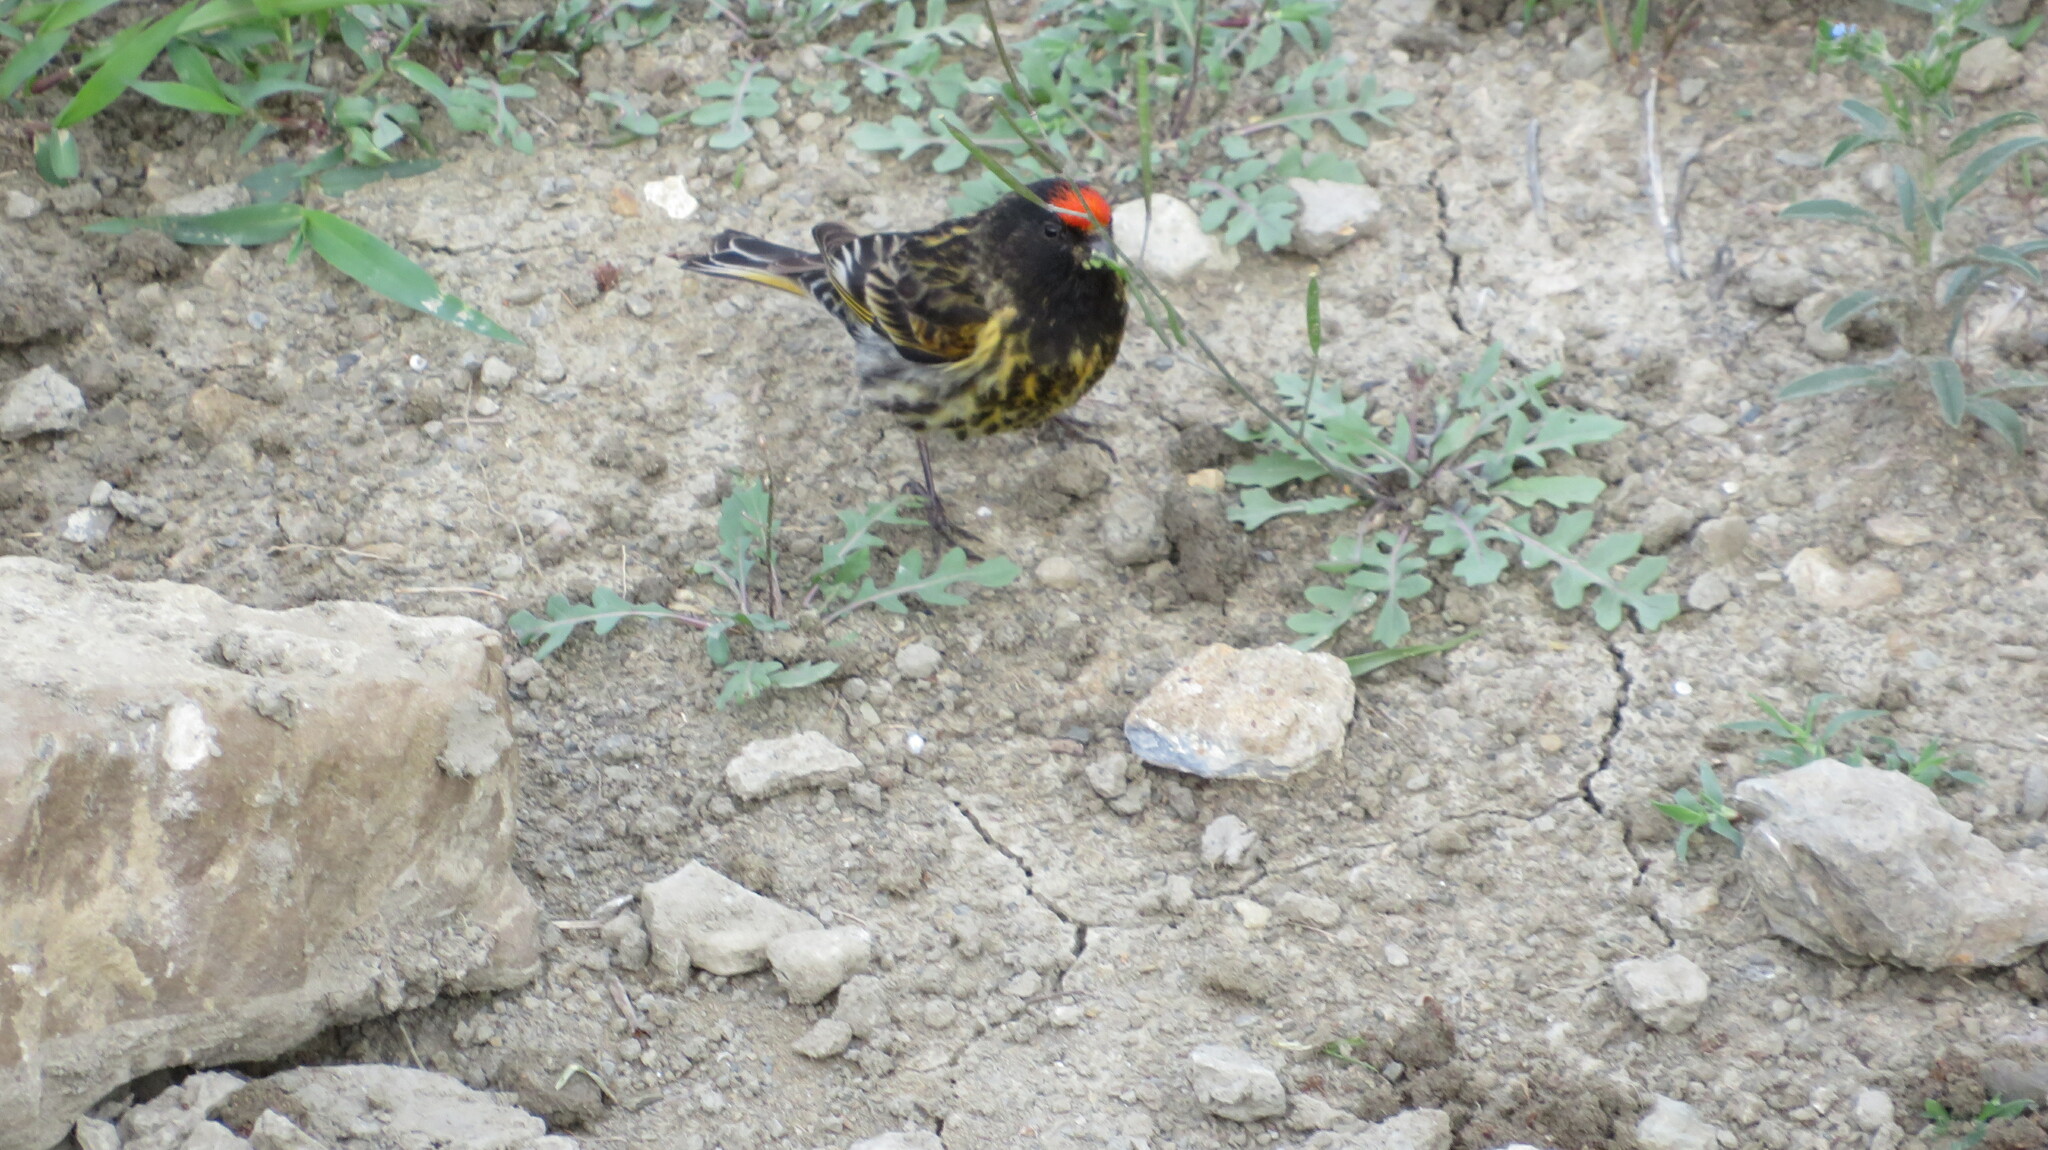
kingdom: Animalia
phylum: Chordata
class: Aves
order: Passeriformes
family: Fringillidae
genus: Serinus
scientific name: Serinus pusillus
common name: Red-fronted serin
